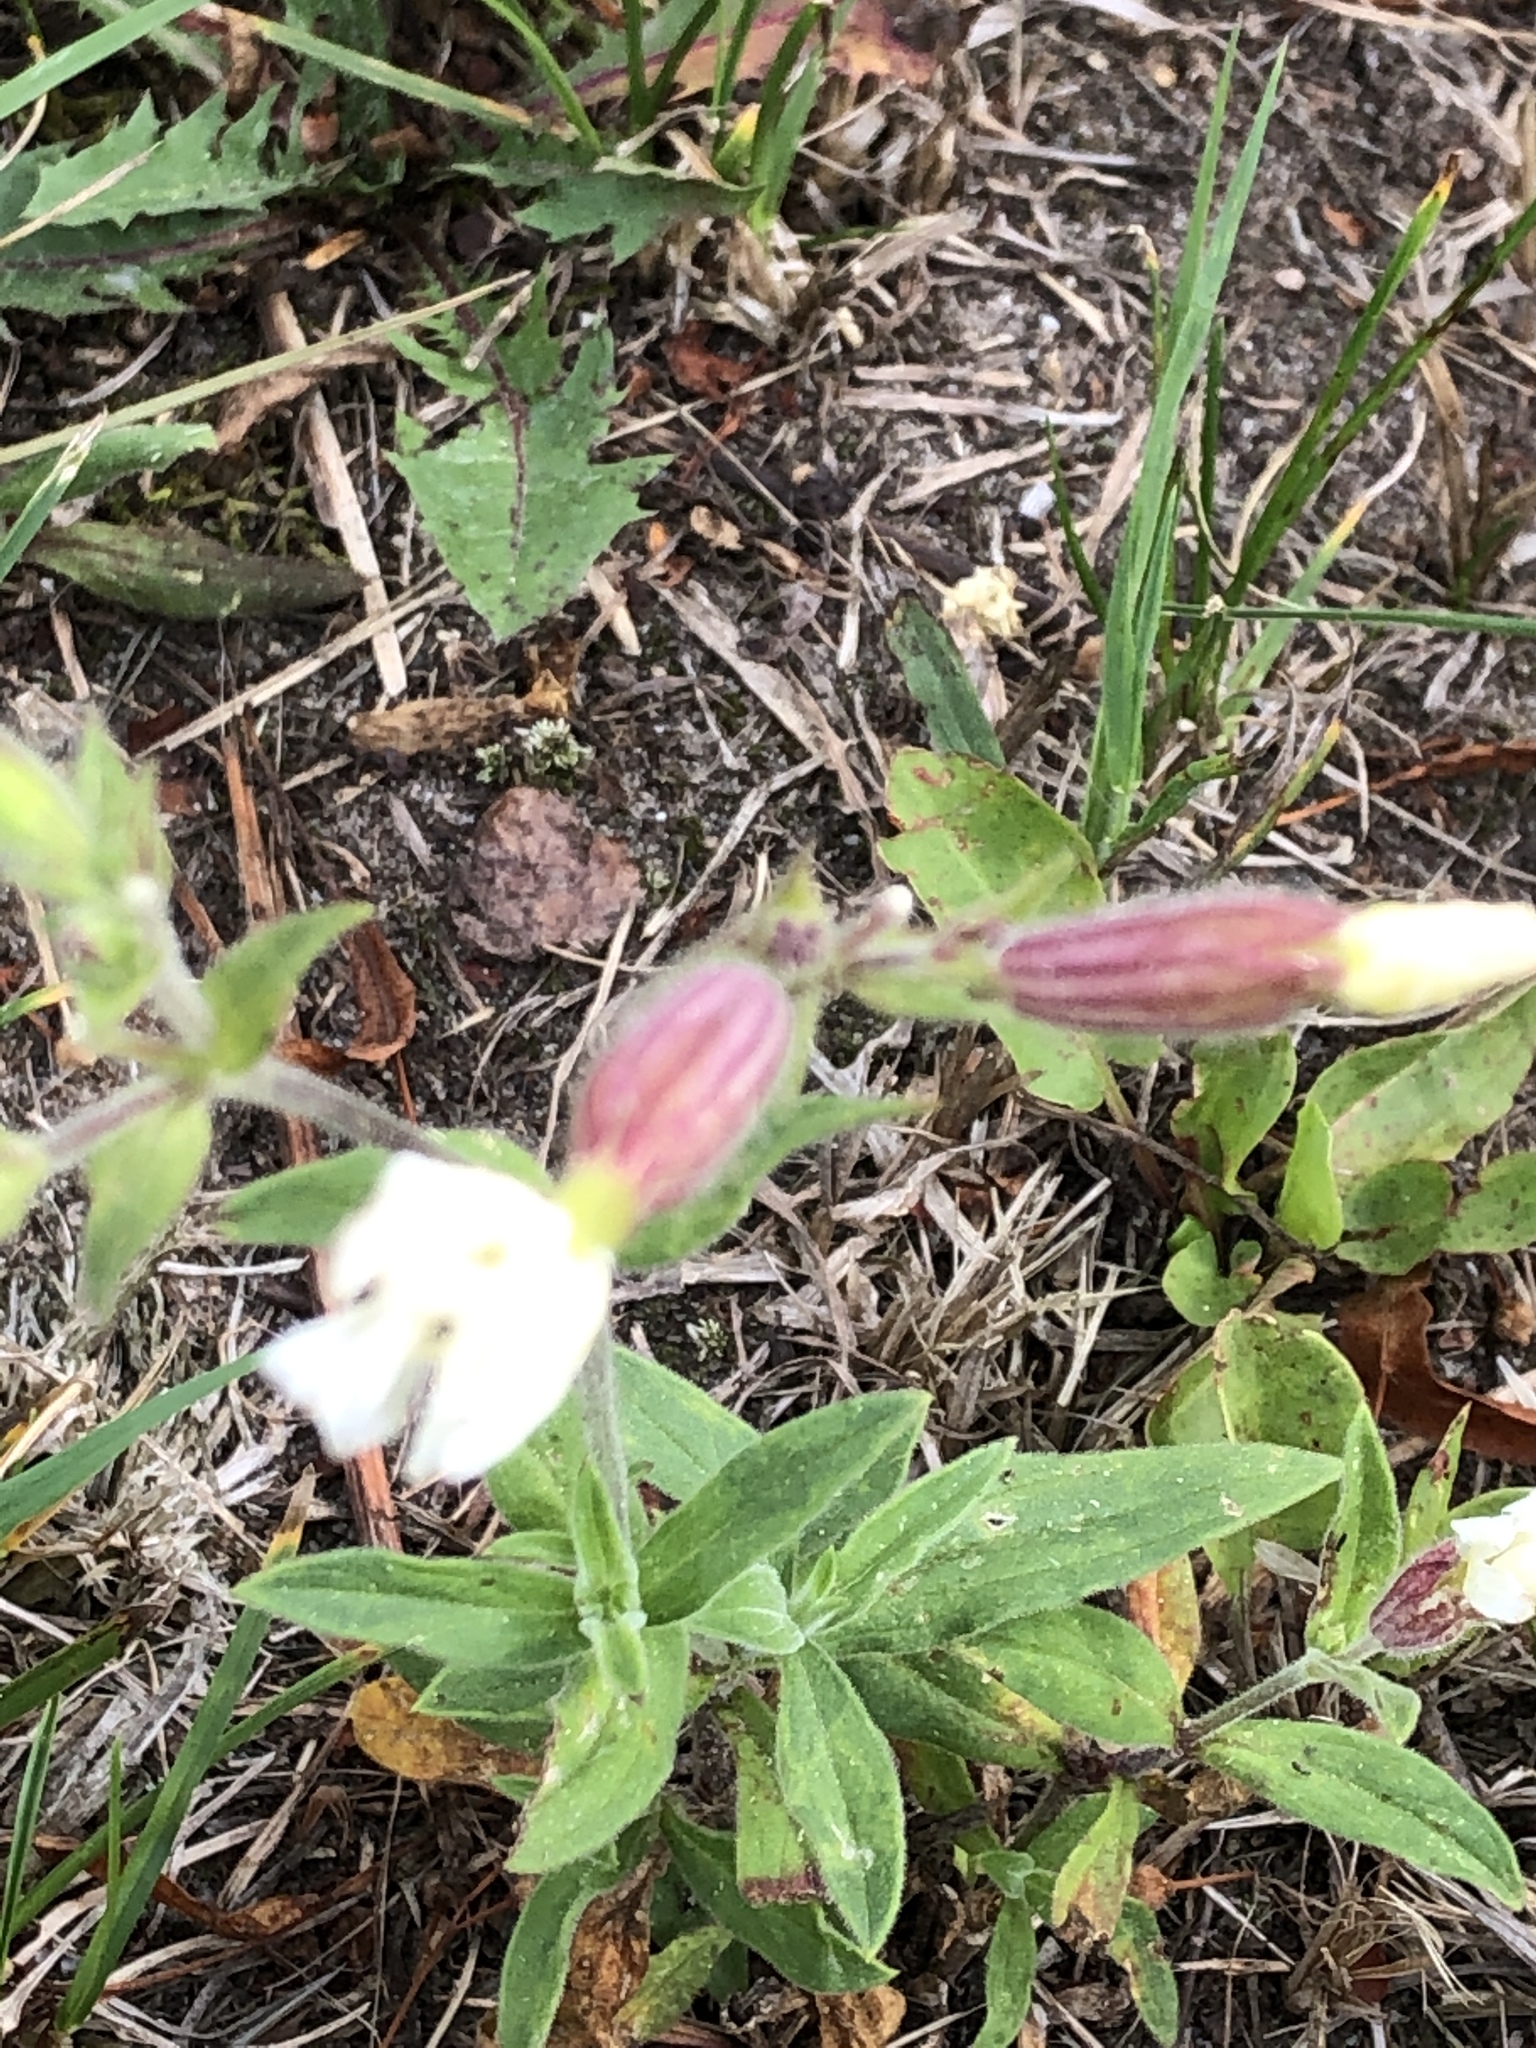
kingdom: Plantae
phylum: Tracheophyta
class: Magnoliopsida
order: Caryophyllales
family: Caryophyllaceae
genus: Silene
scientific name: Silene latifolia
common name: White campion
